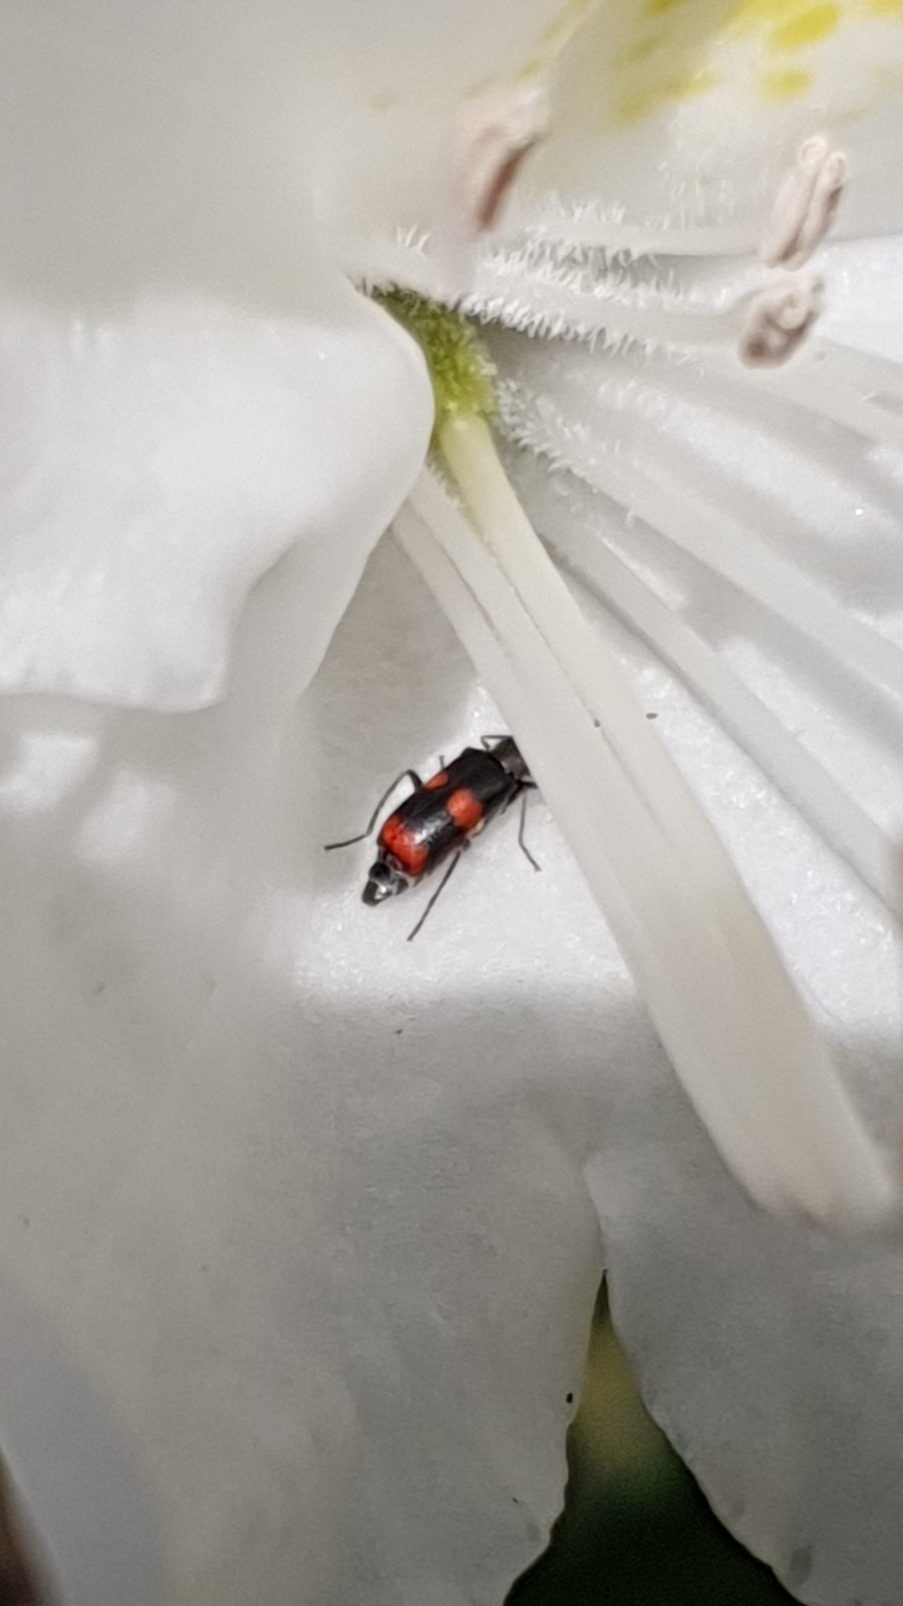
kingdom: Animalia
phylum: Arthropoda
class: Insecta
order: Coleoptera
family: Melyridae
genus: Anthocomus
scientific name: Anthocomus fasciatus
